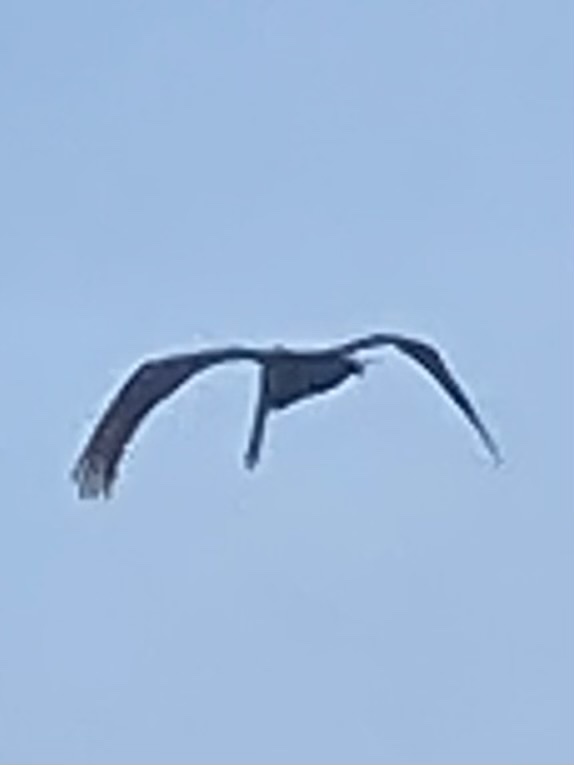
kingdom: Animalia
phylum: Chordata
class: Aves
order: Pelecaniformes
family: Pelecanidae
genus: Pelecanus
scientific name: Pelecanus occidentalis
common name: Brown pelican
